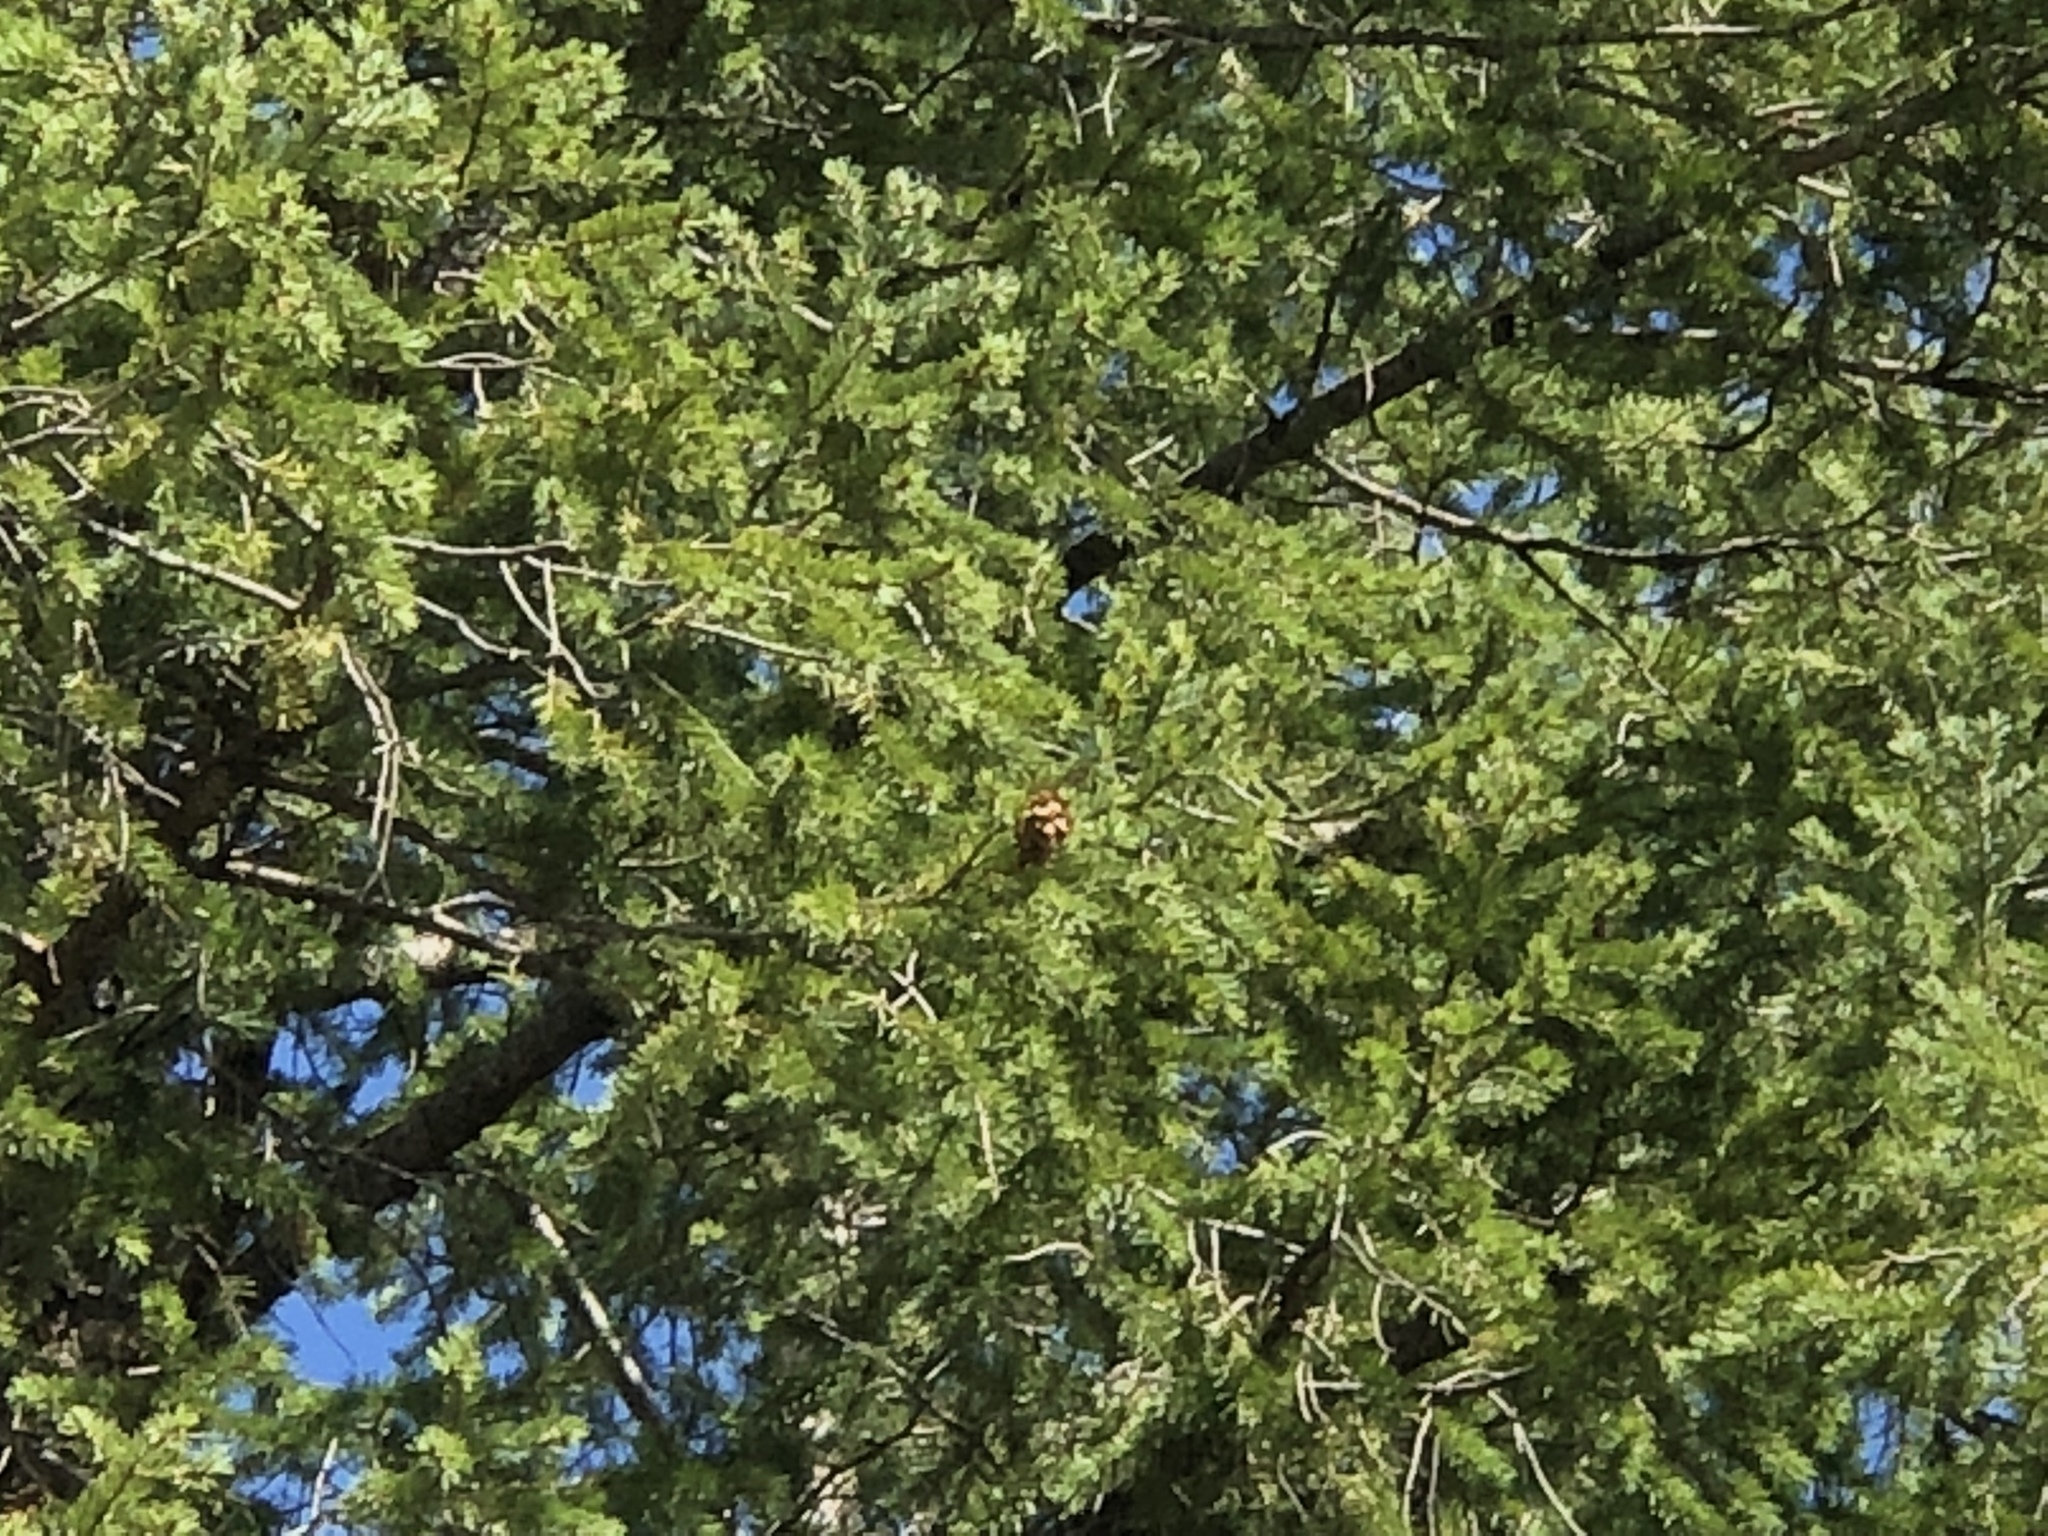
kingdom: Plantae
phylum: Tracheophyta
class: Pinopsida
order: Pinales
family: Pinaceae
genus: Pseudotsuga
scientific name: Pseudotsuga menziesii
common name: Douglas fir
